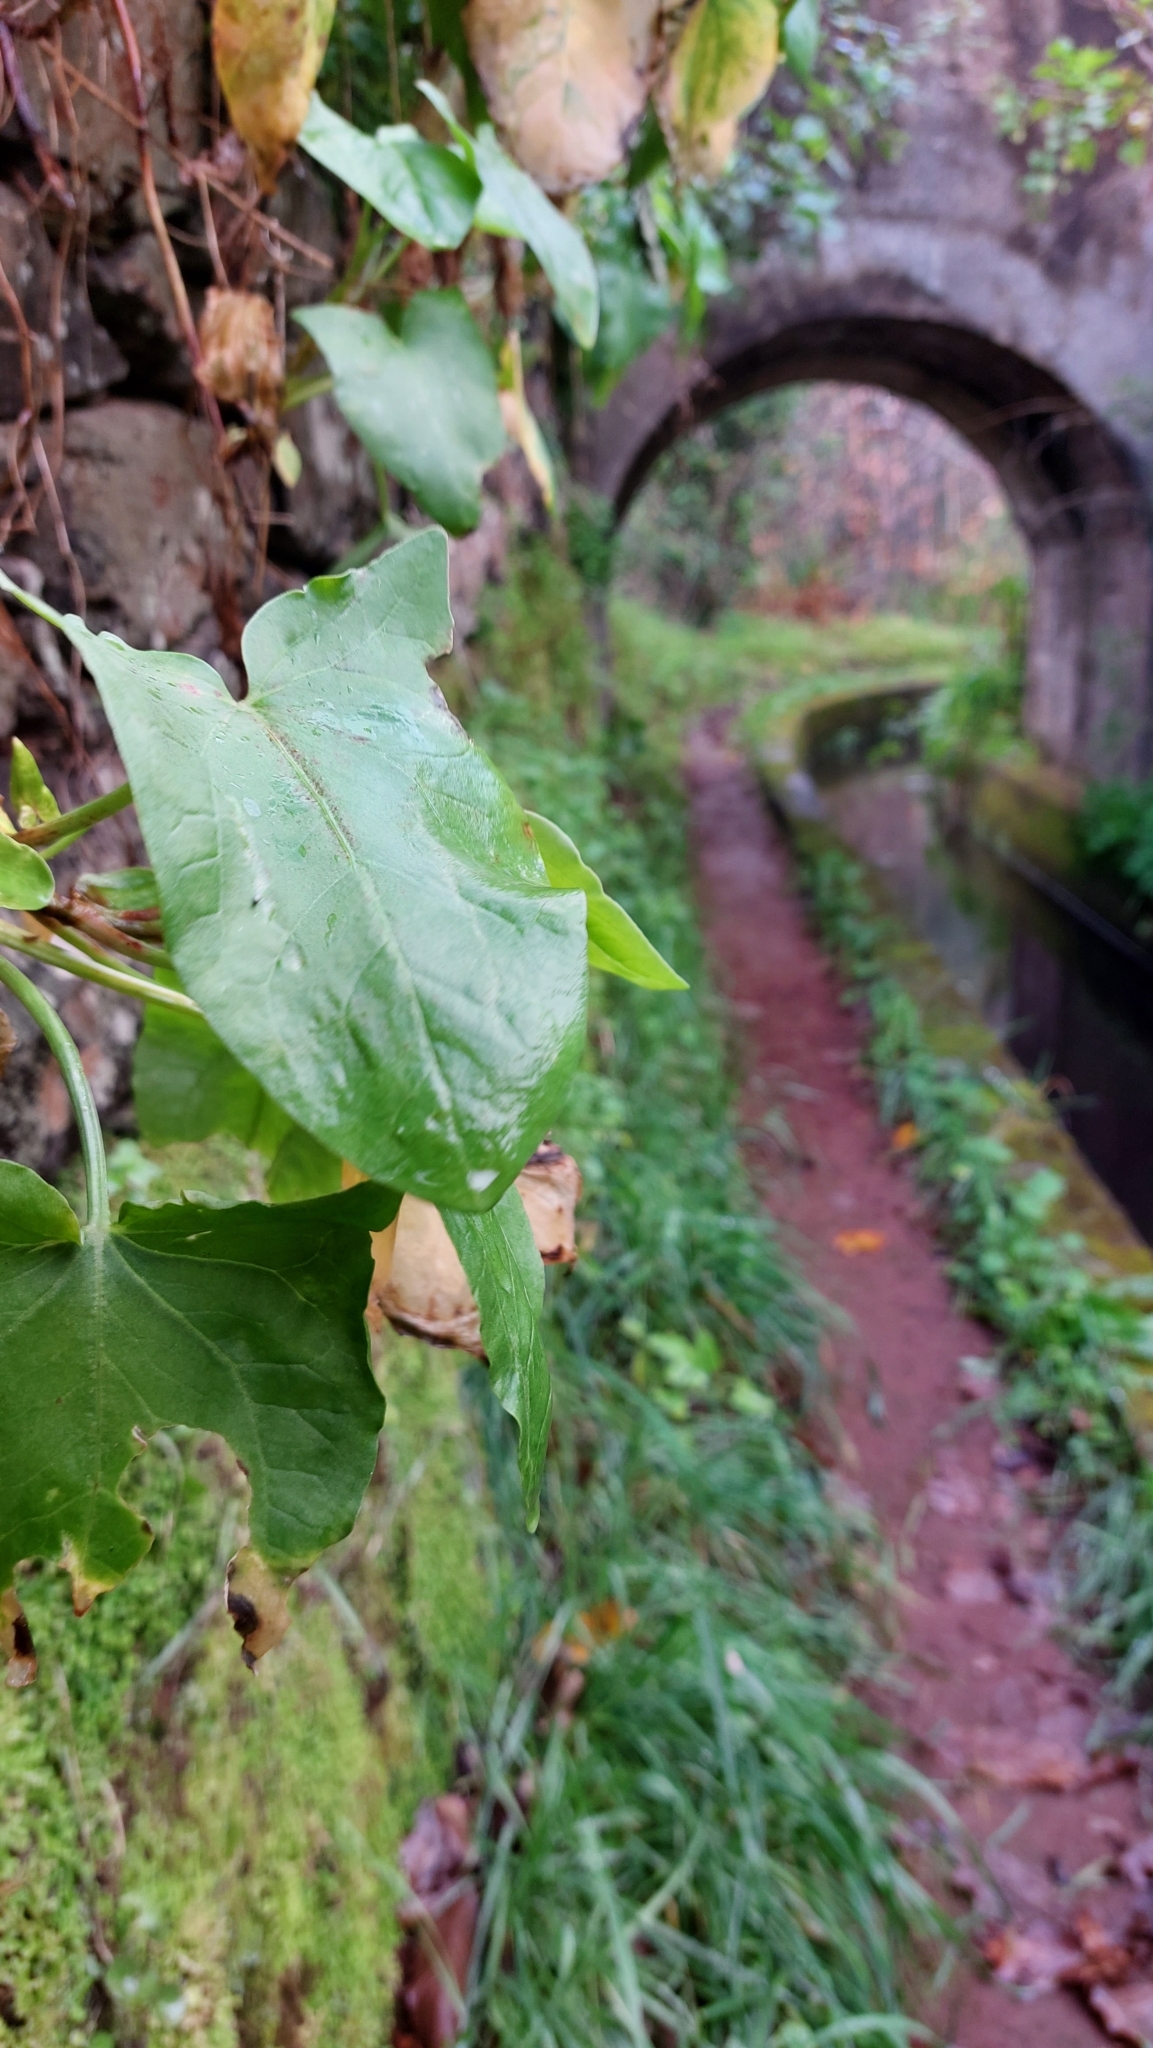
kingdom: Plantae
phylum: Tracheophyta
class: Magnoliopsida
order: Caryophyllales
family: Polygonaceae
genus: Rumex
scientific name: Rumex maderensis
